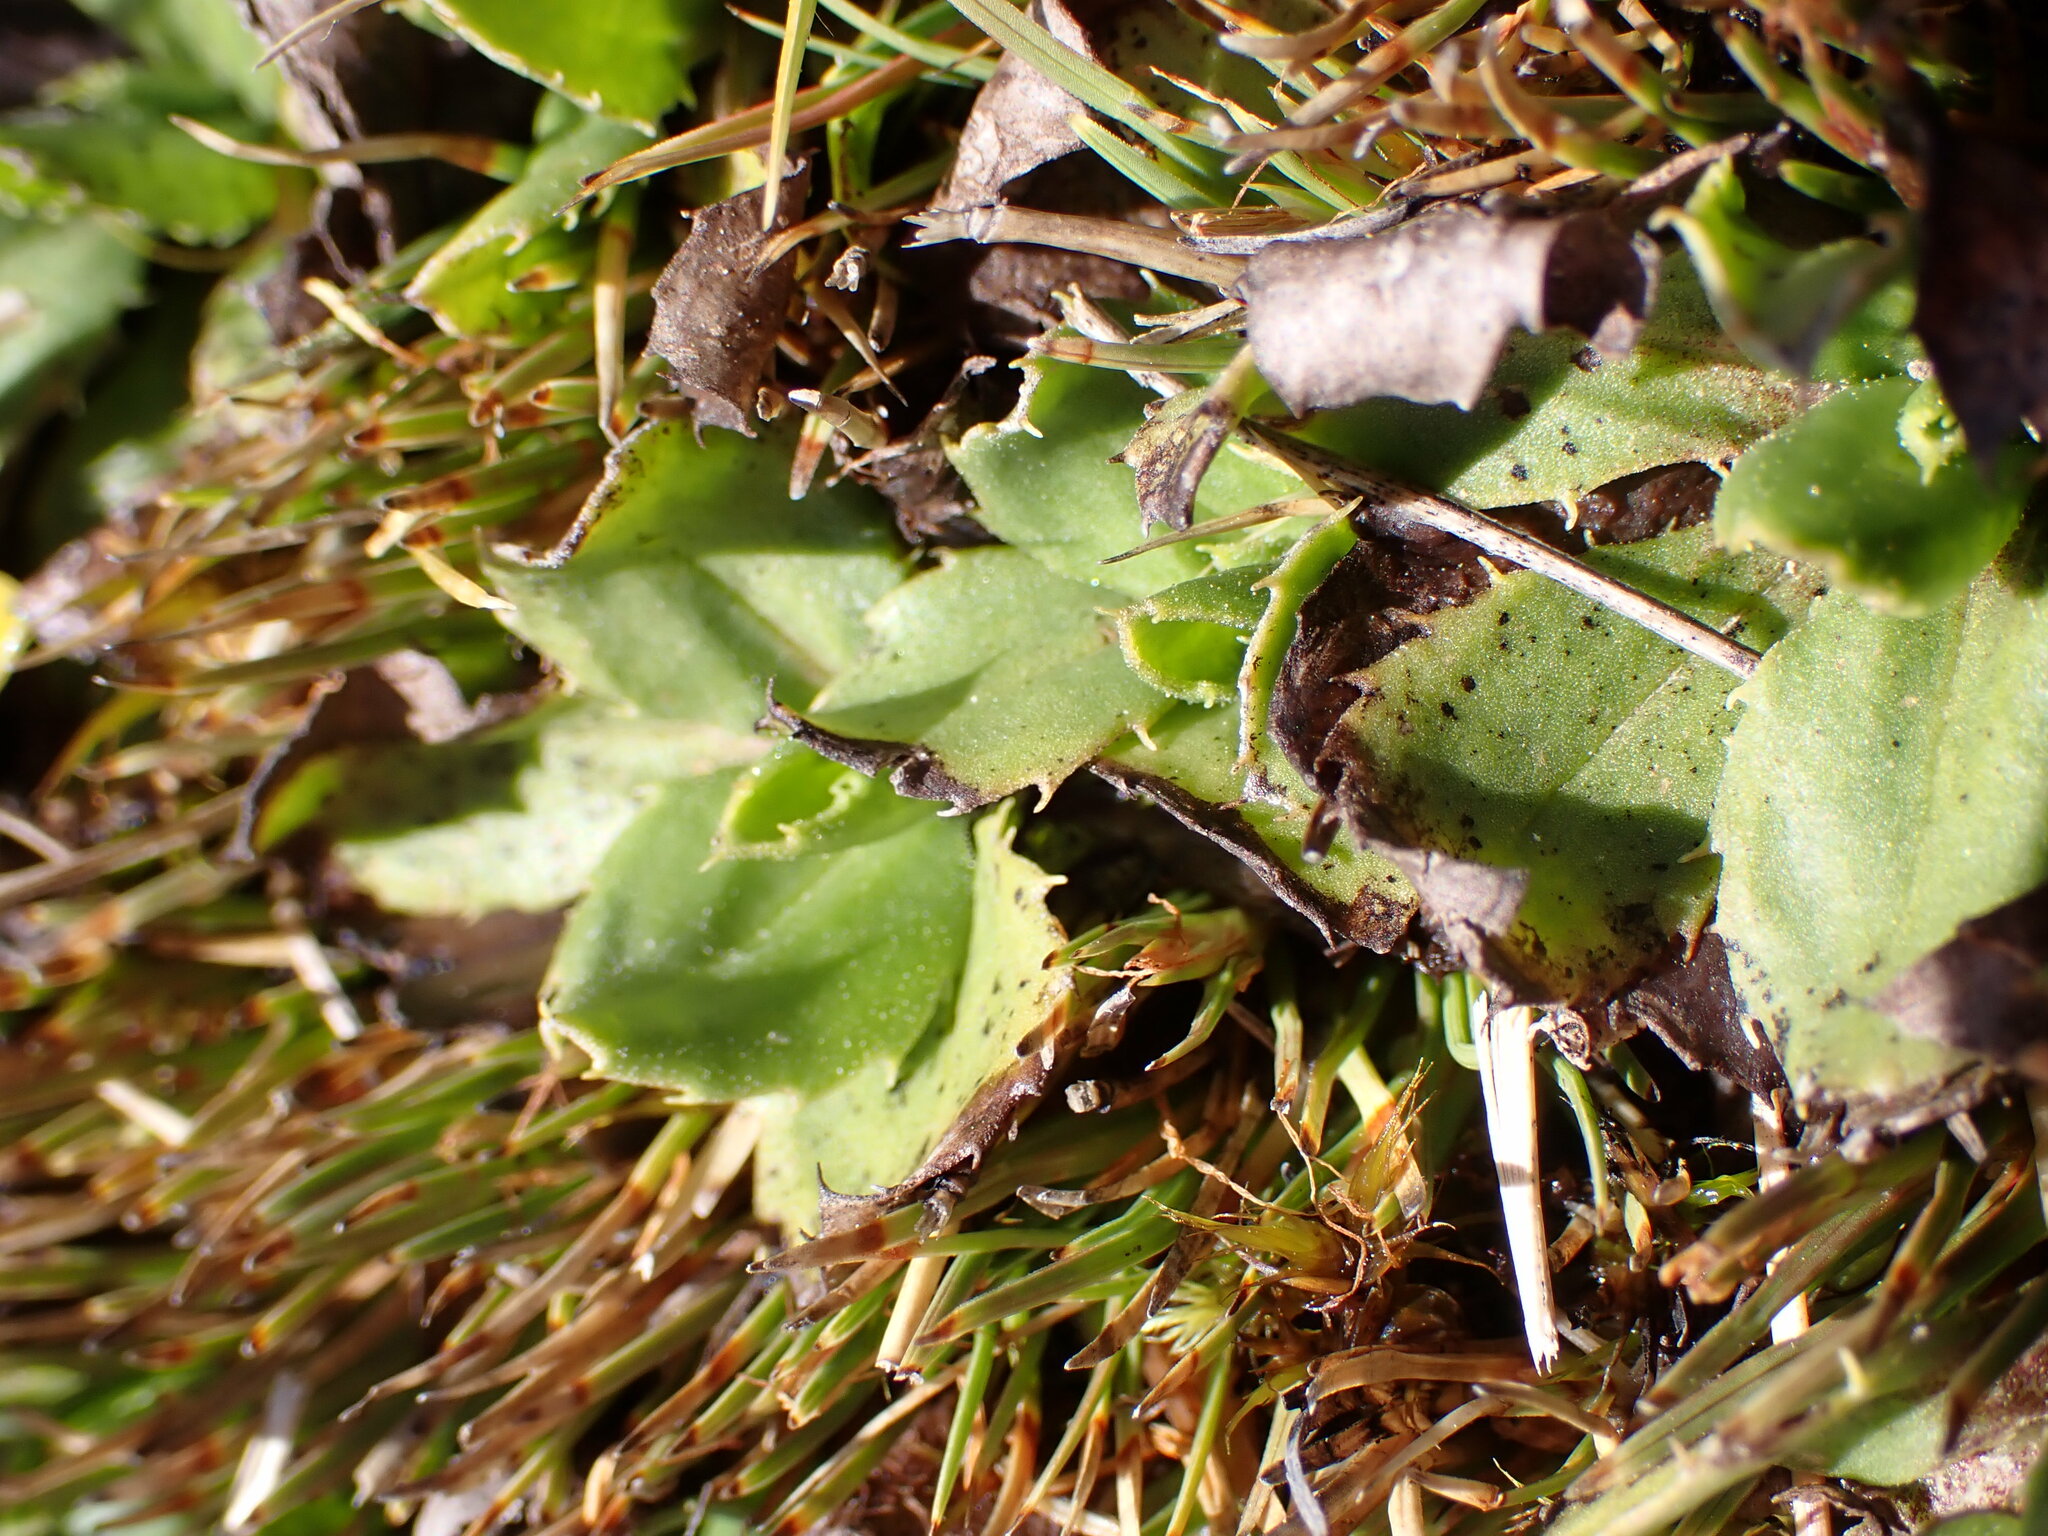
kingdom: Plantae
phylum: Tracheophyta
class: Magnoliopsida
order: Asterales
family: Asteraceae
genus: Celmisia
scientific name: Celmisia glandulosa
